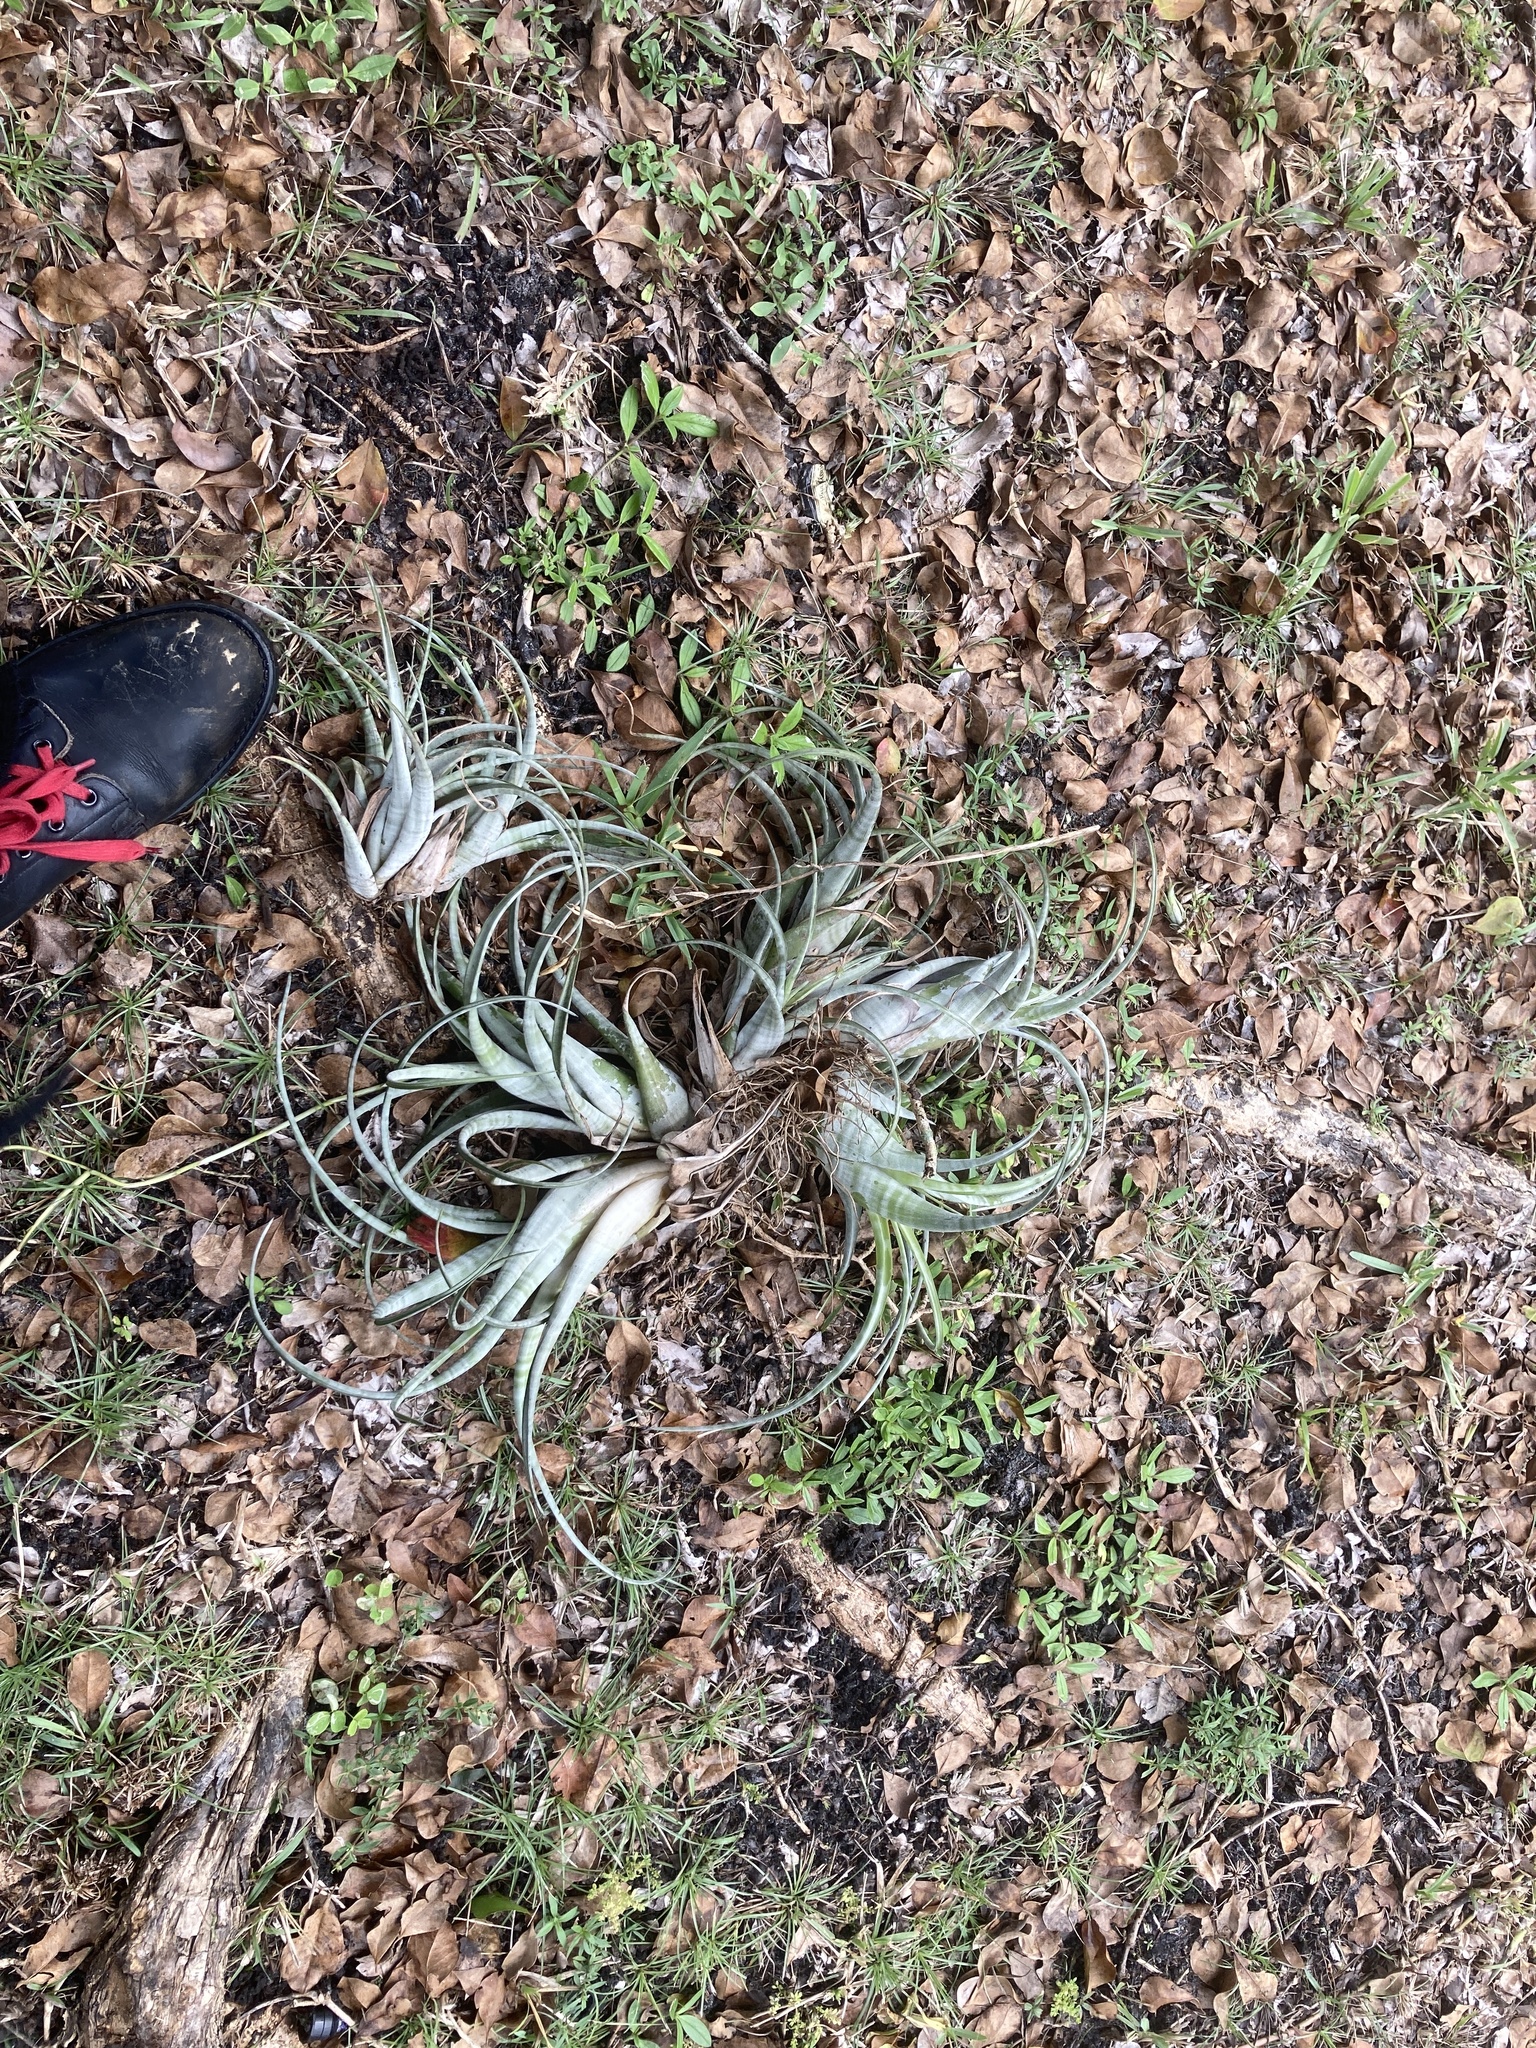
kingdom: Plantae
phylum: Tracheophyta
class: Liliopsida
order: Poales
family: Bromeliaceae
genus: Tillandsia
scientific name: Tillandsia flexuosa
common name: Banded airplant
